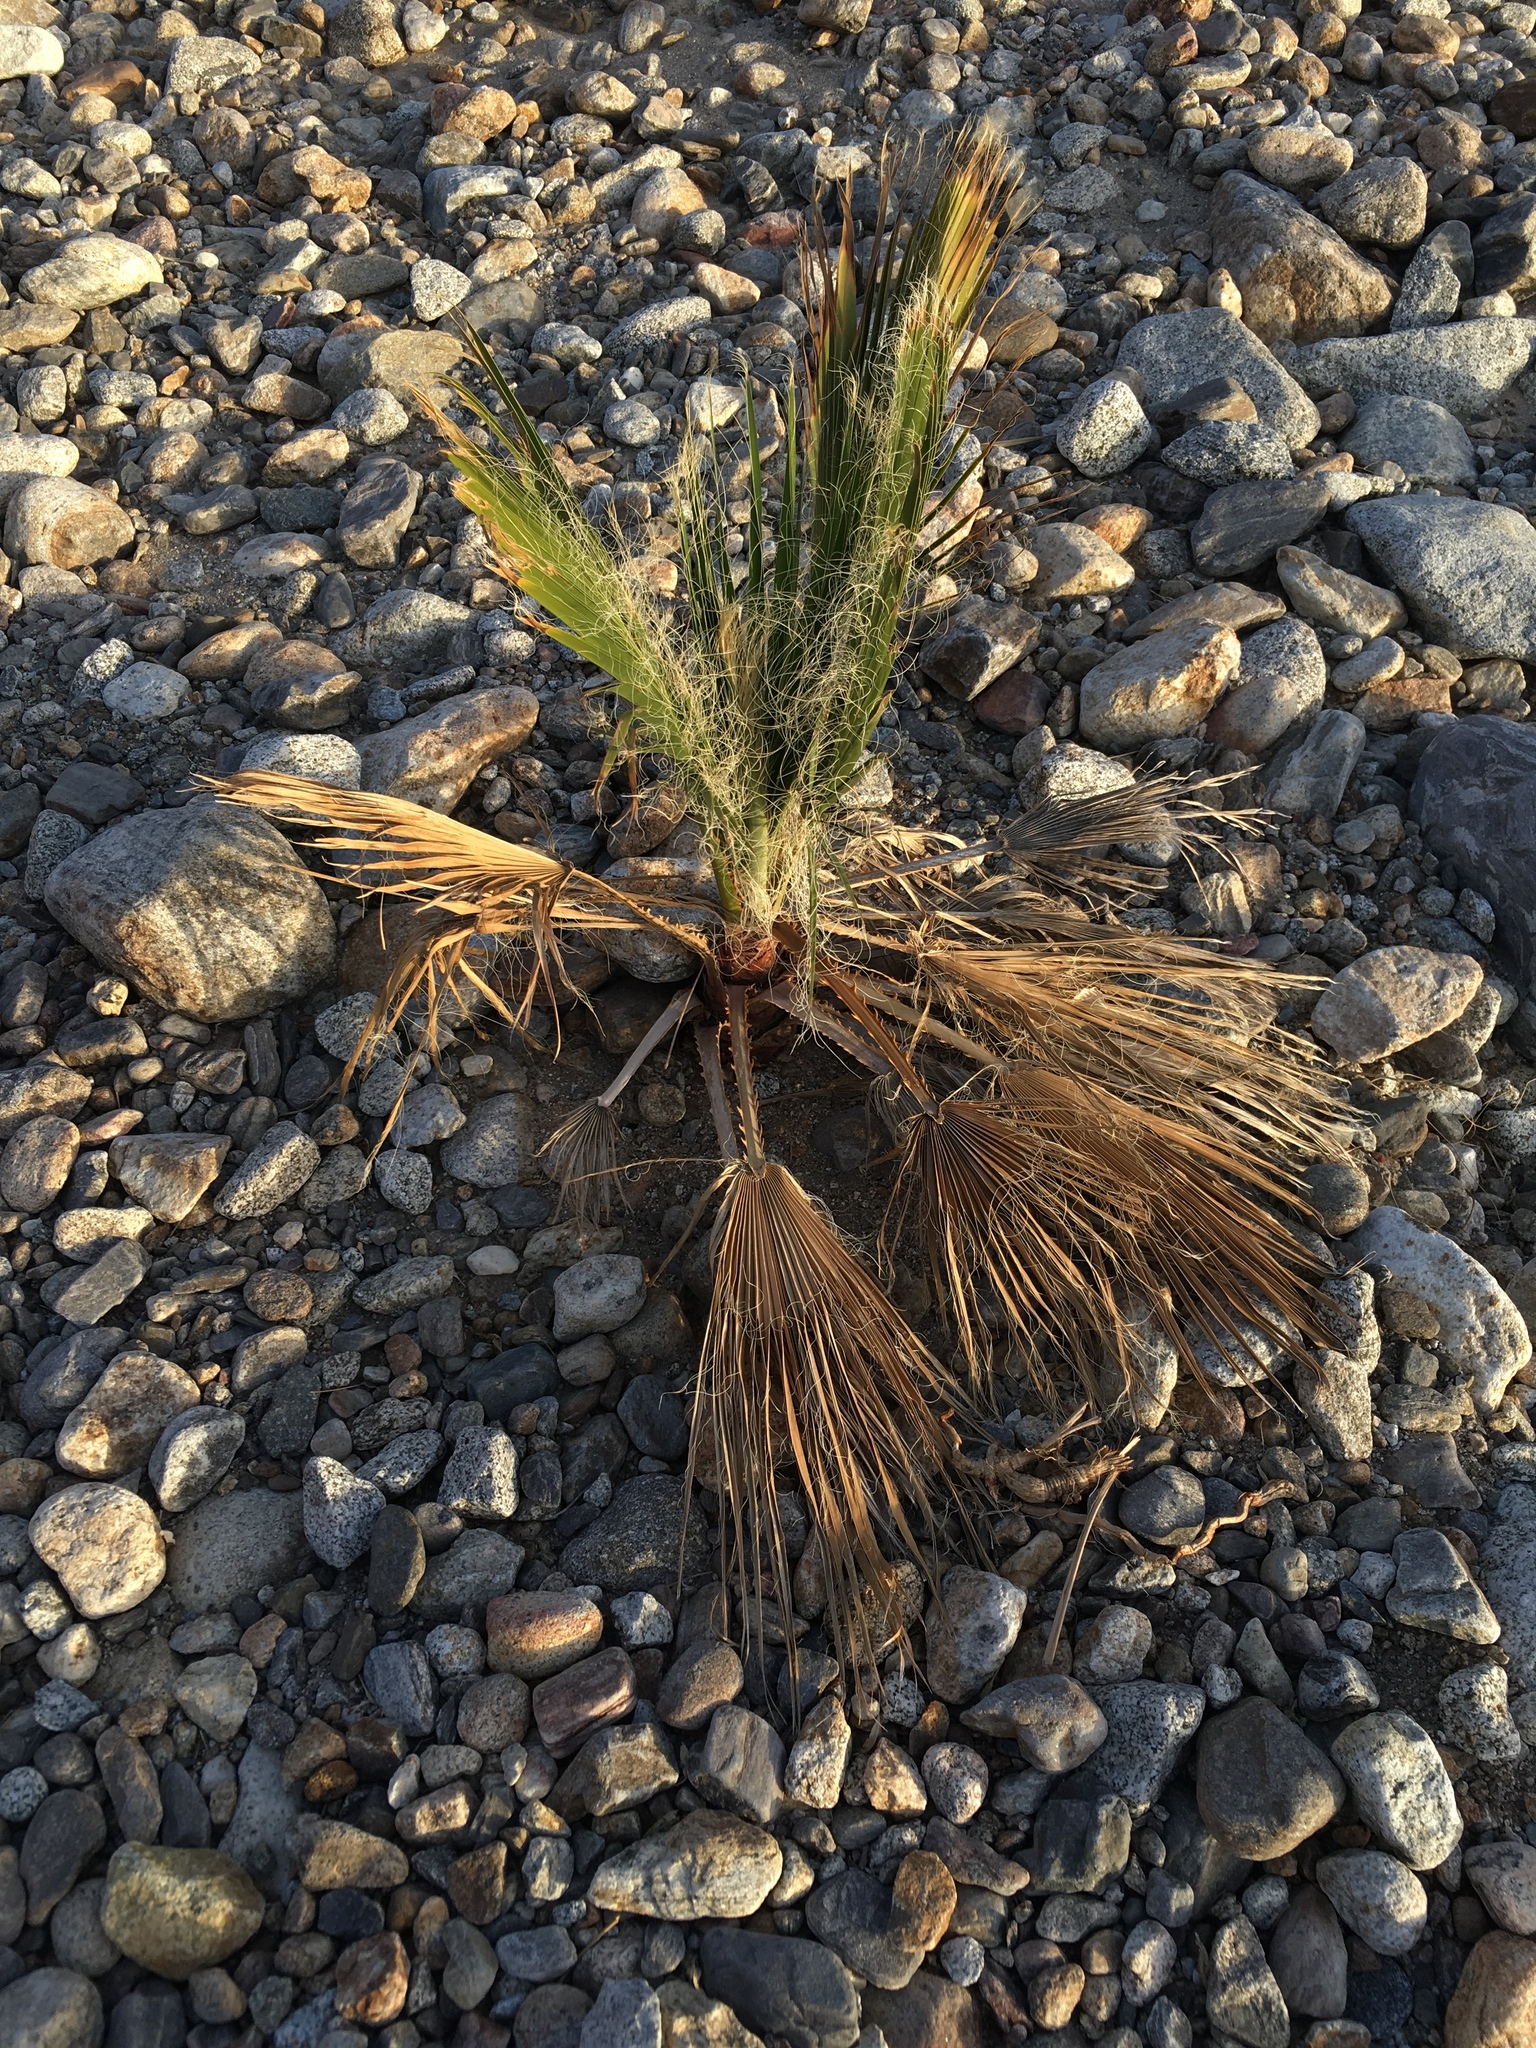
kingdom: Plantae
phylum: Tracheophyta
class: Liliopsida
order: Arecales
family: Arecaceae
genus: Washingtonia
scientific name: Washingtonia filifera
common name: California fan palm
